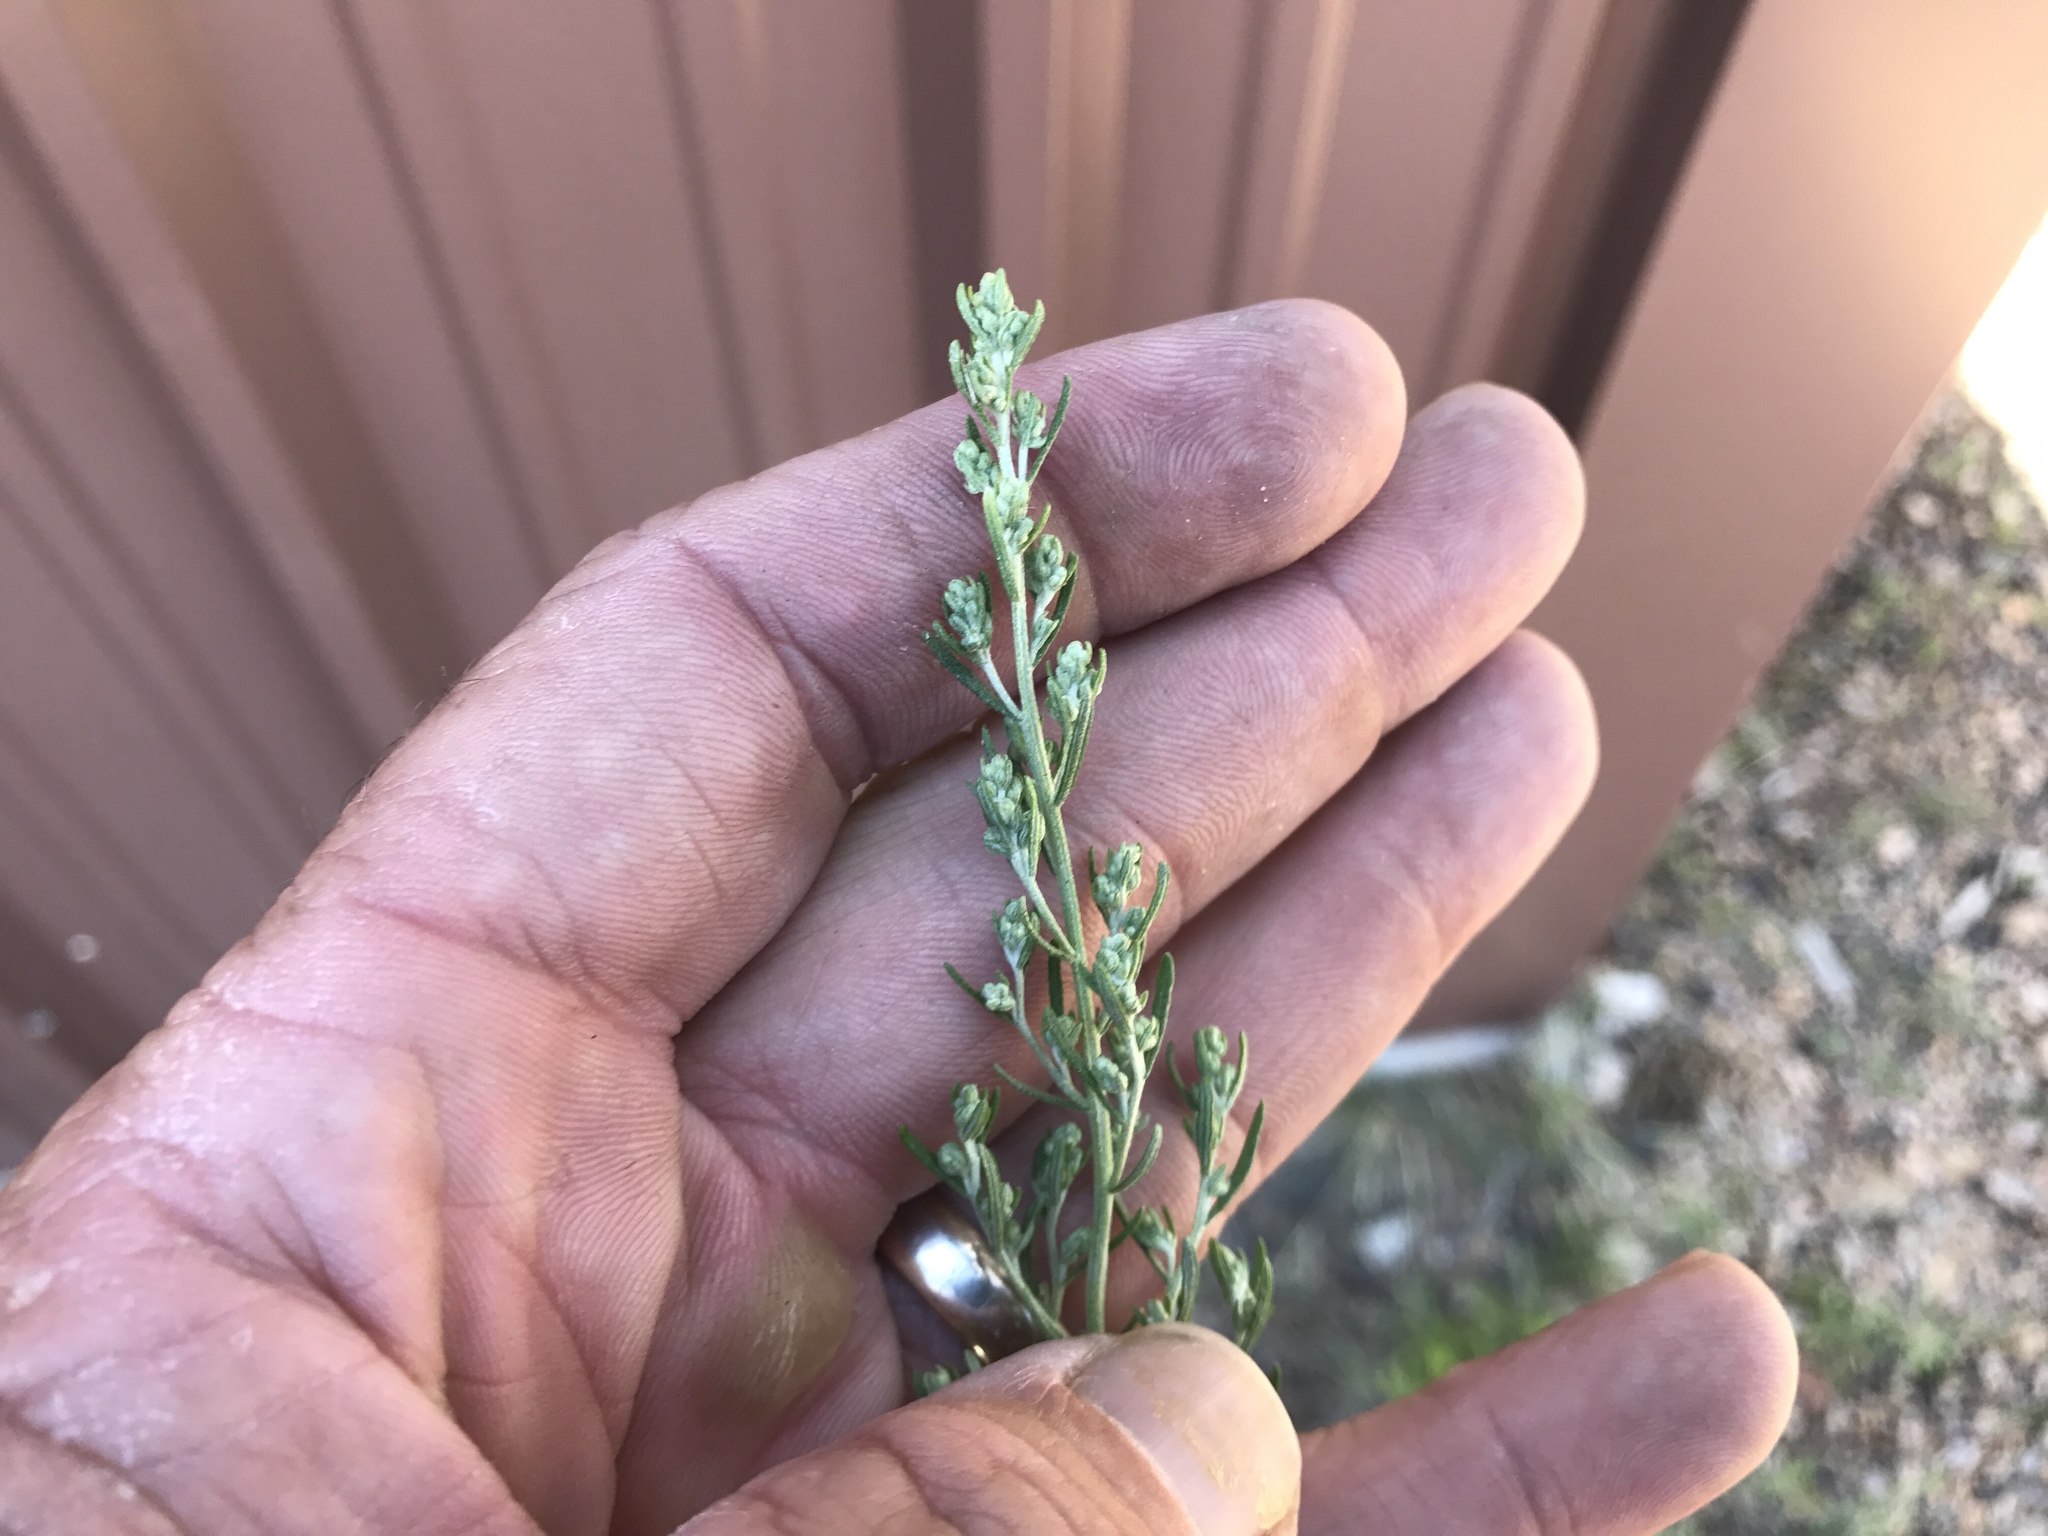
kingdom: Plantae
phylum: Tracheophyta
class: Magnoliopsida
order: Asterales
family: Asteraceae
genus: Artemisia
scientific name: Artemisia carruthii
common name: Carruth wormwood
